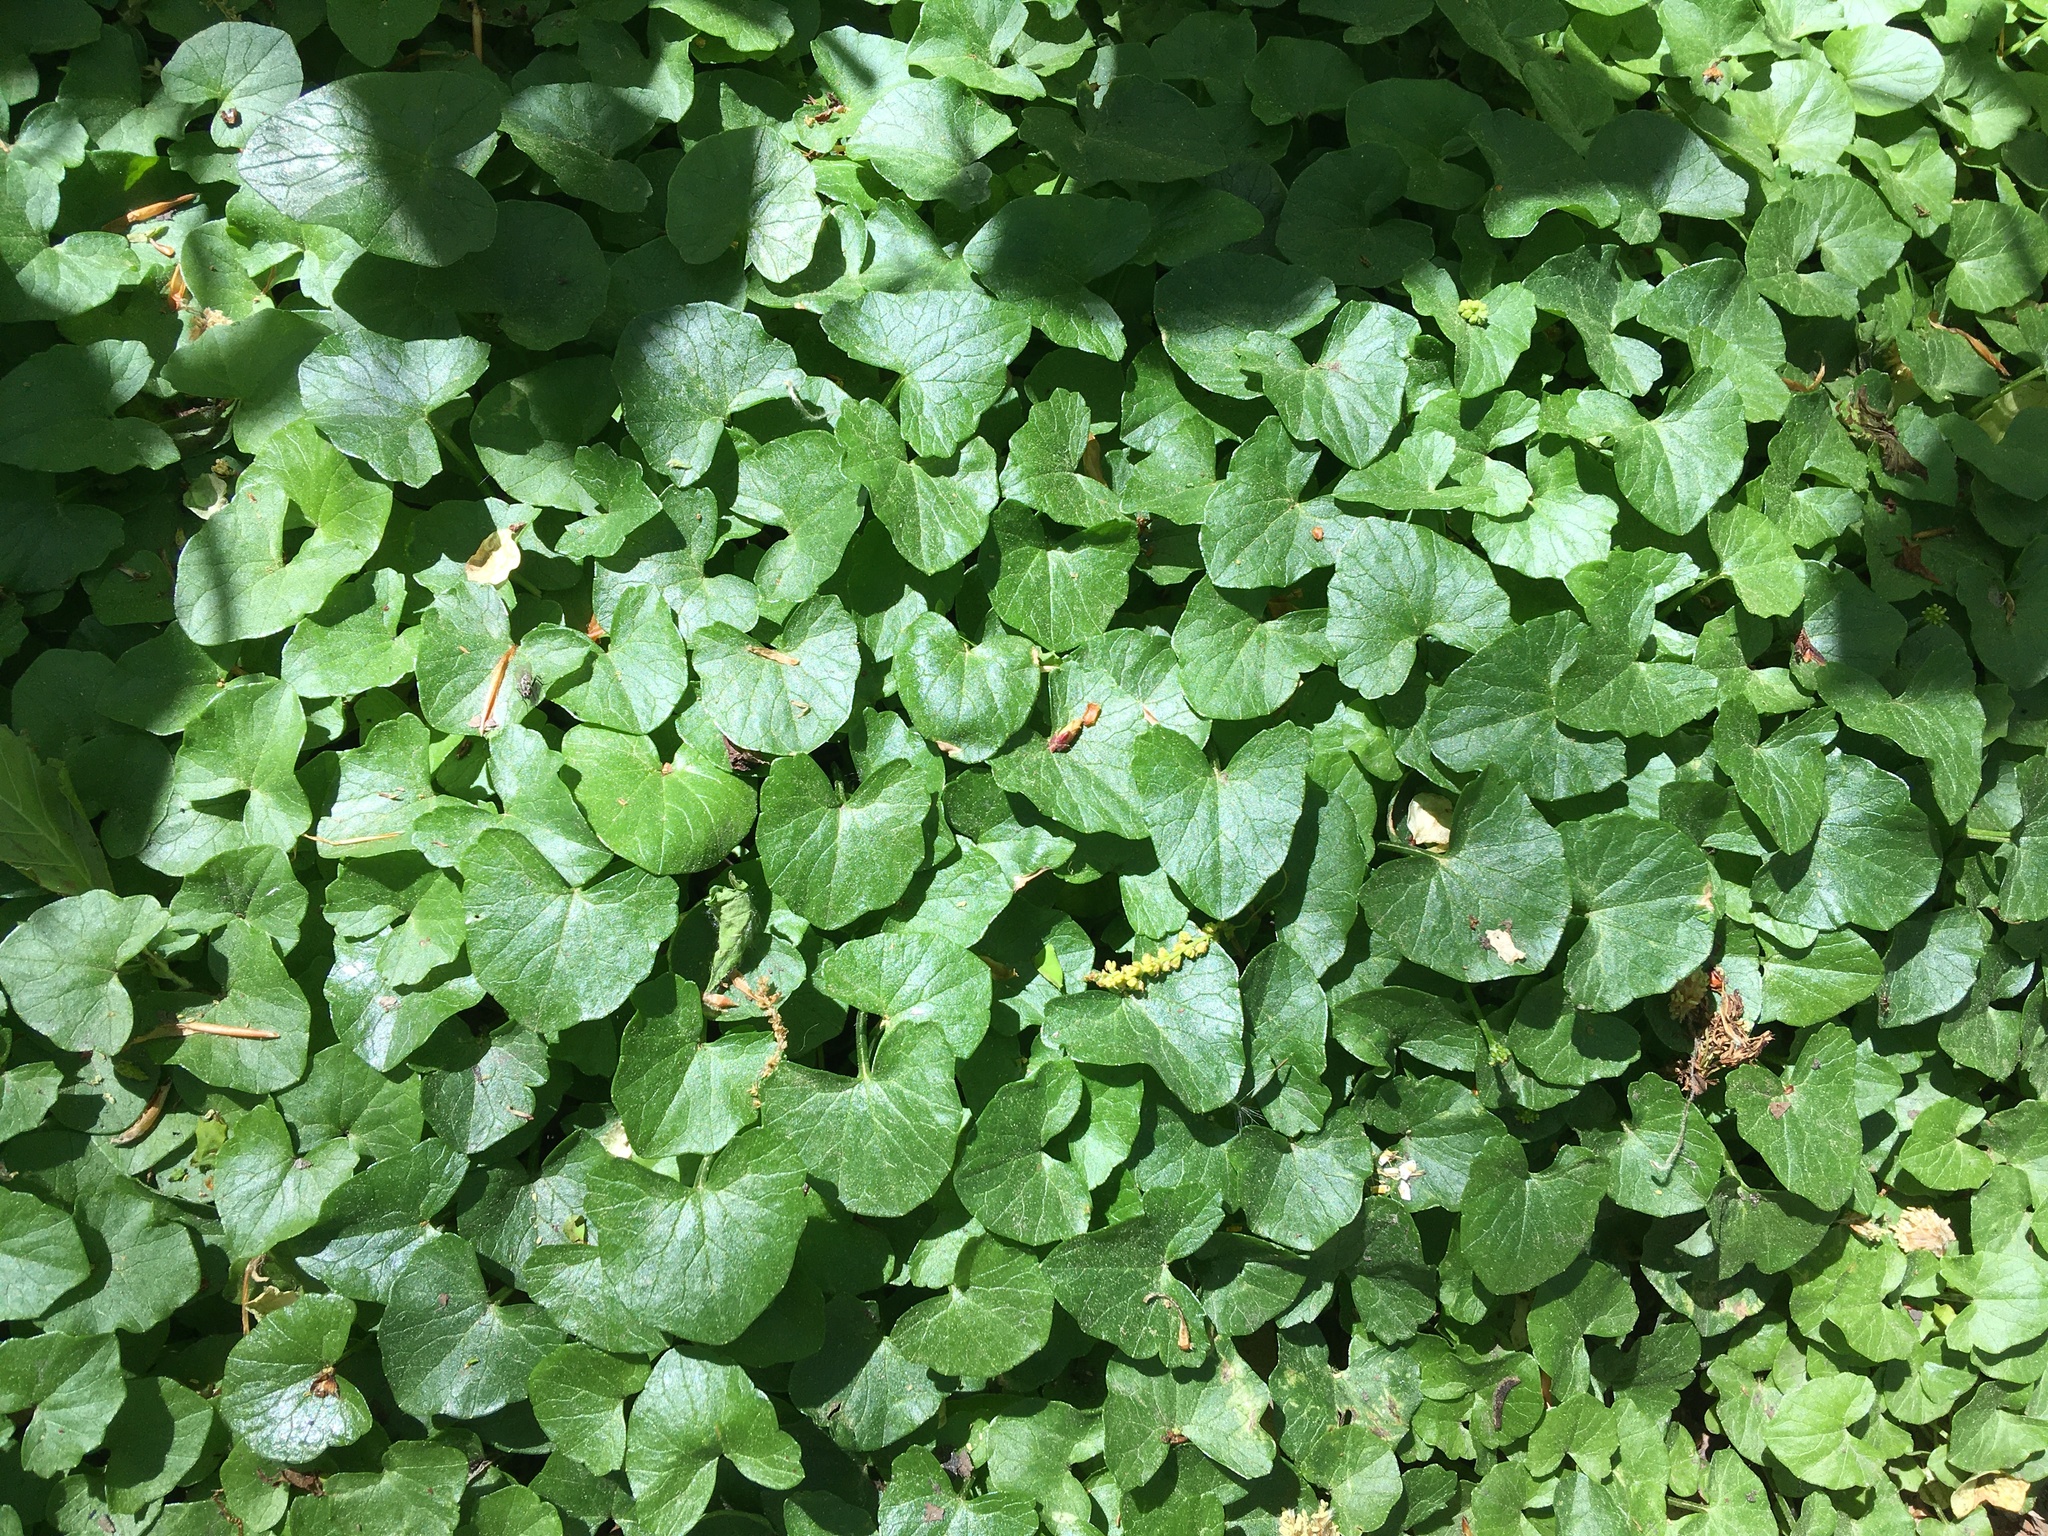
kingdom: Plantae
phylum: Tracheophyta
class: Magnoliopsida
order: Ranunculales
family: Ranunculaceae
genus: Ficaria
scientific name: Ficaria verna
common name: Lesser celandine
